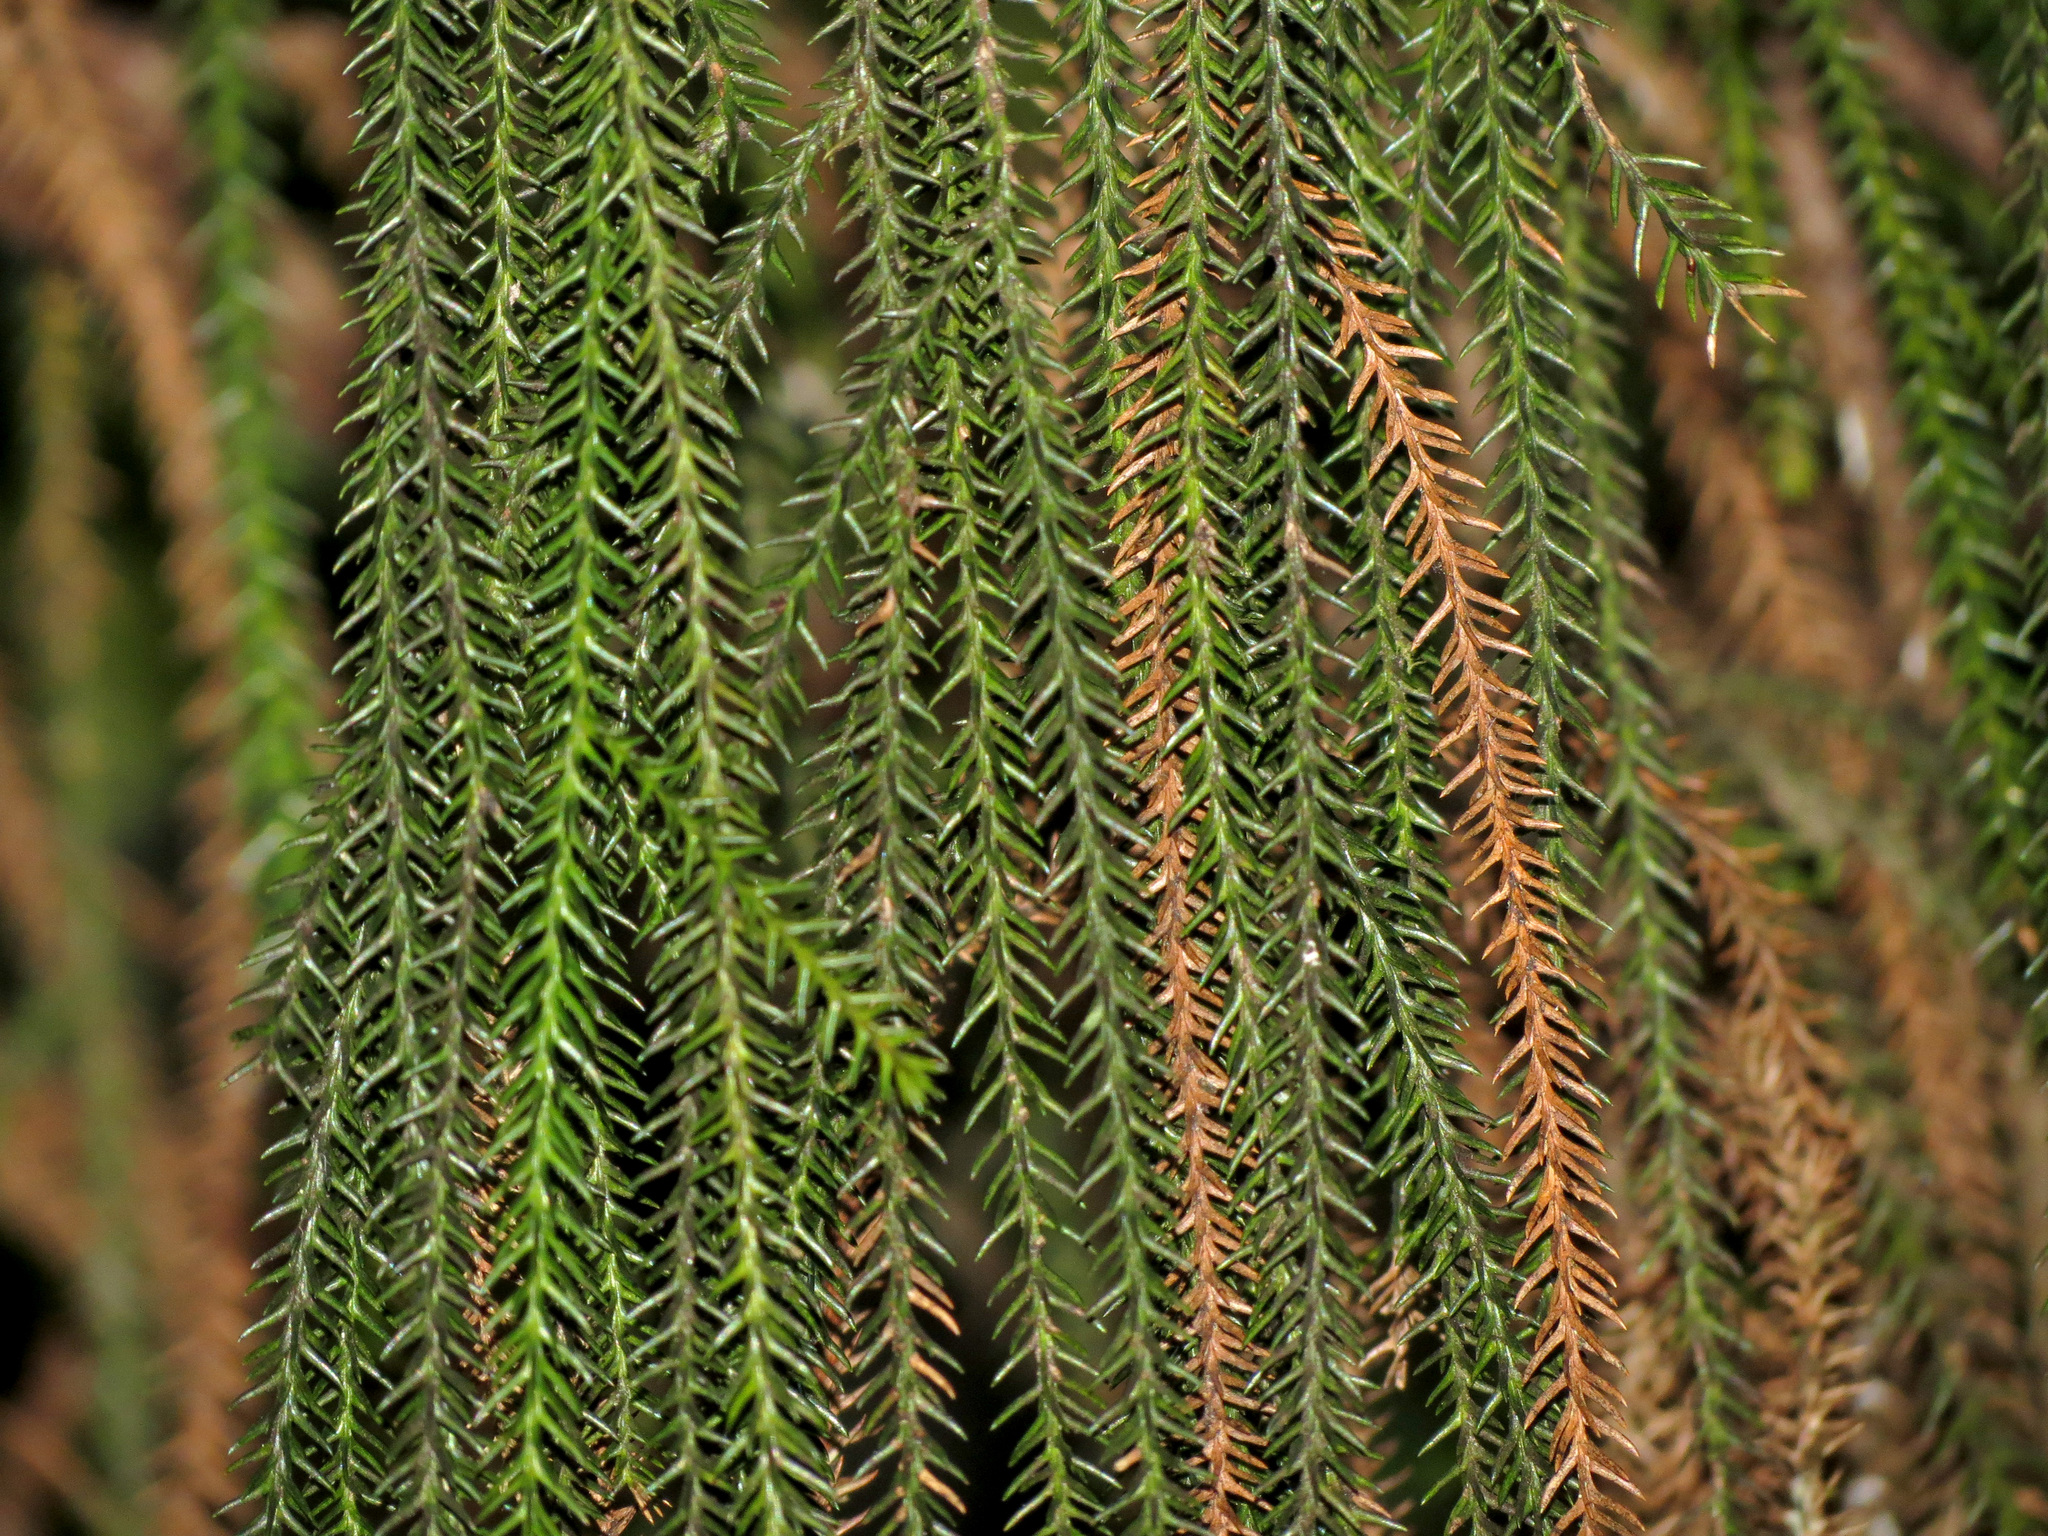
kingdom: Plantae
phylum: Tracheophyta
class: Pinopsida
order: Pinales
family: Podocarpaceae
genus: Dacrydium
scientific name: Dacrydium cupressinum
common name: Red pine
